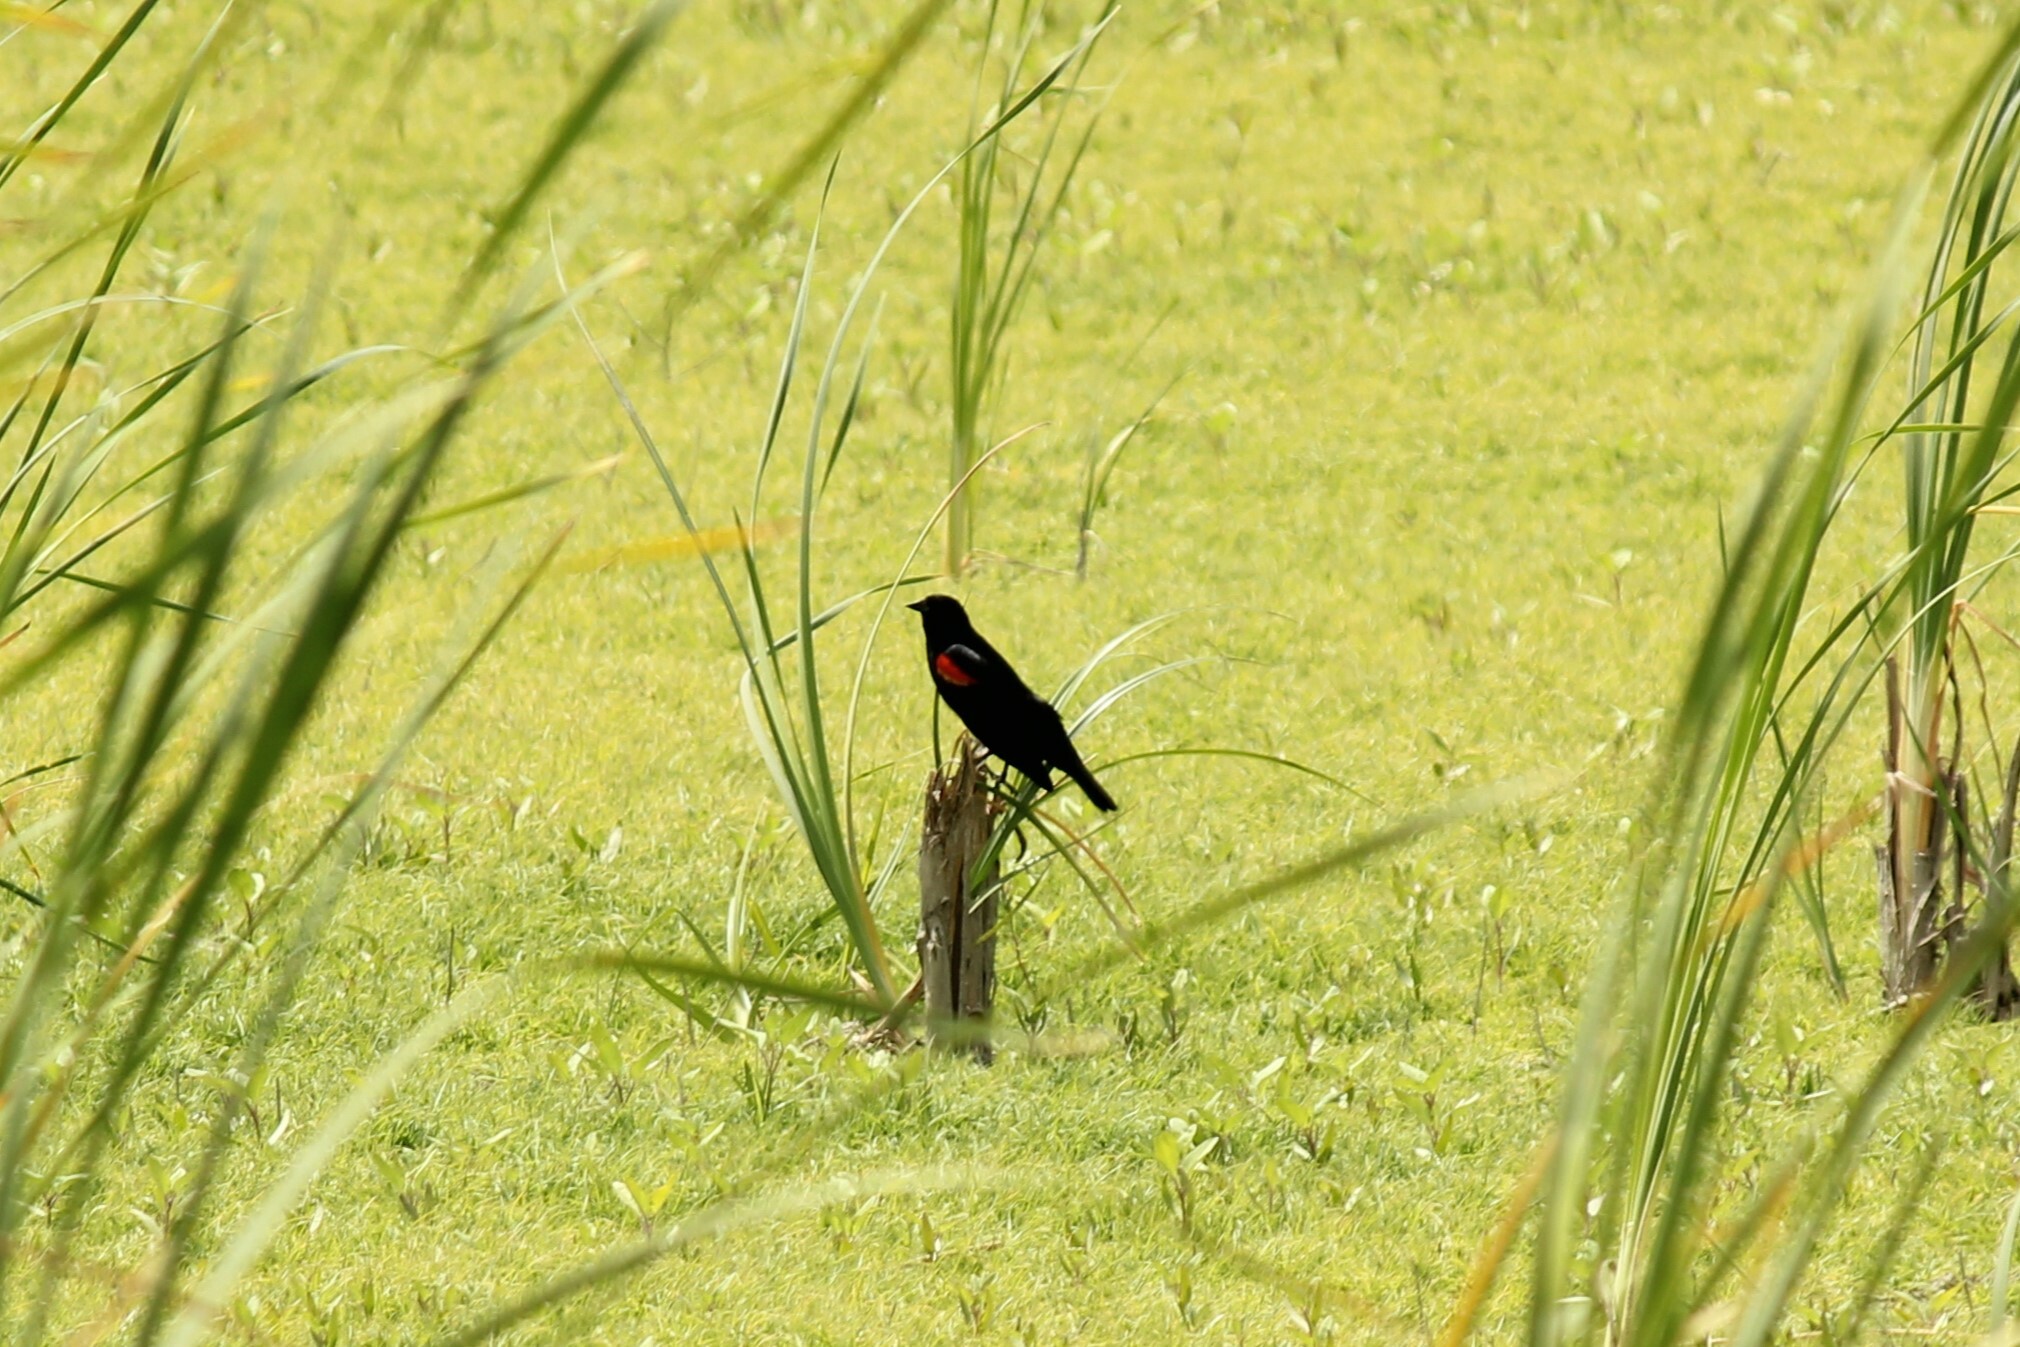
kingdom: Animalia
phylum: Chordata
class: Aves
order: Passeriformes
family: Icteridae
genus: Agelaius
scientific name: Agelaius phoeniceus
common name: Red-winged blackbird
